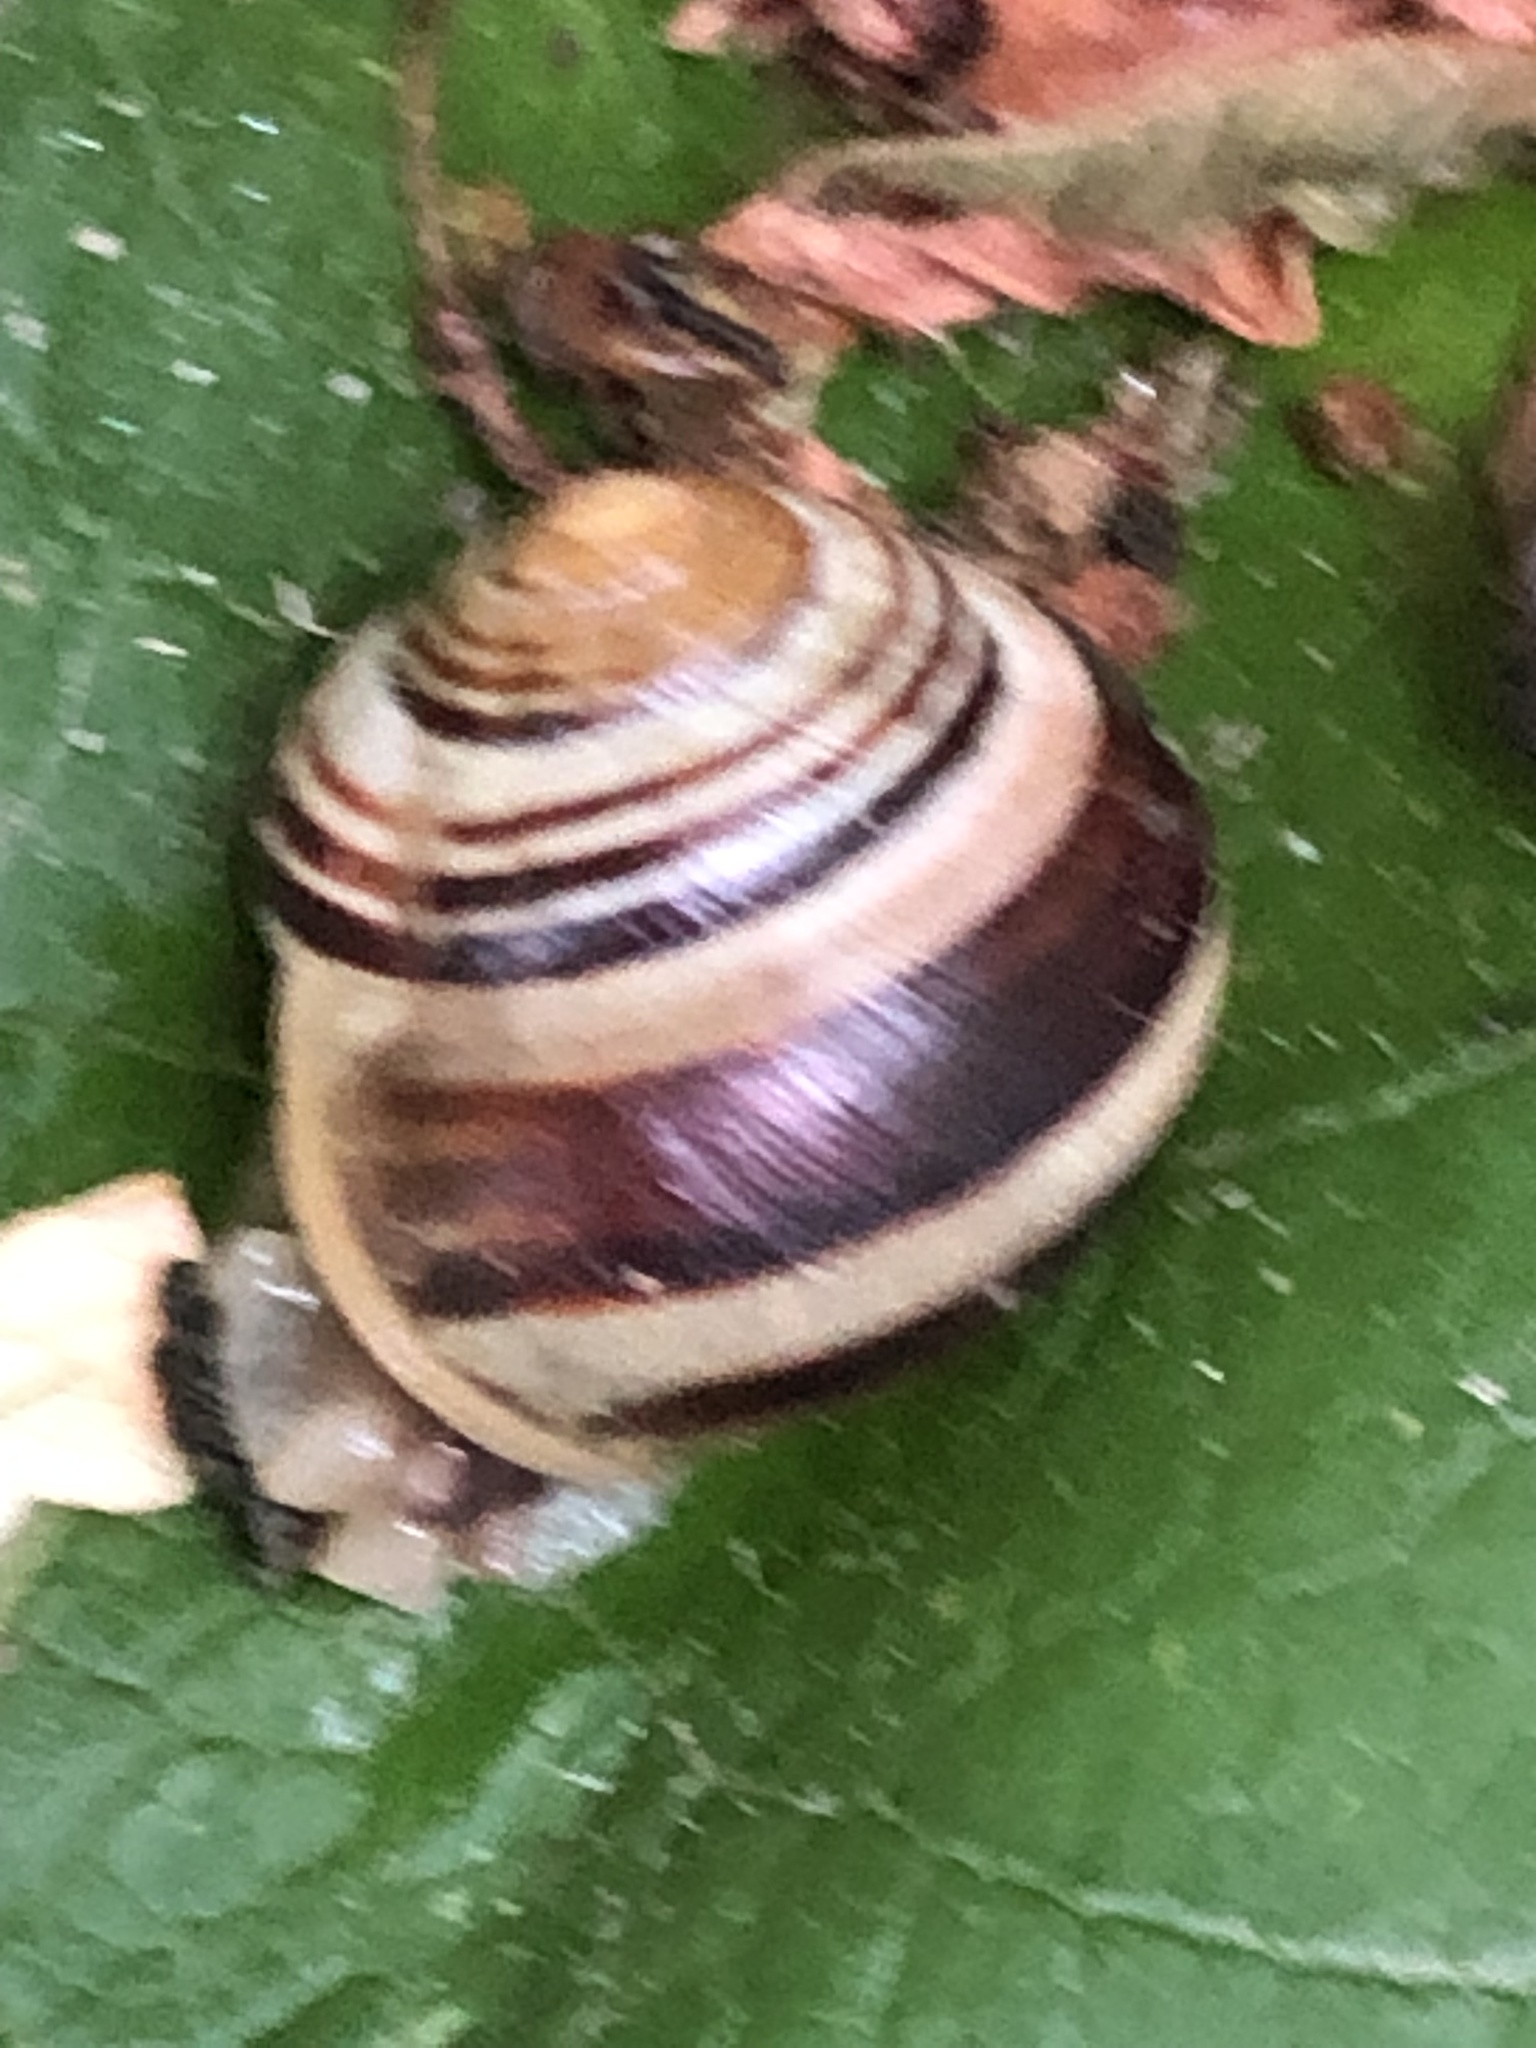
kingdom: Animalia
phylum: Mollusca
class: Gastropoda
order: Stylommatophora
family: Helicidae
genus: Cepaea
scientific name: Cepaea
